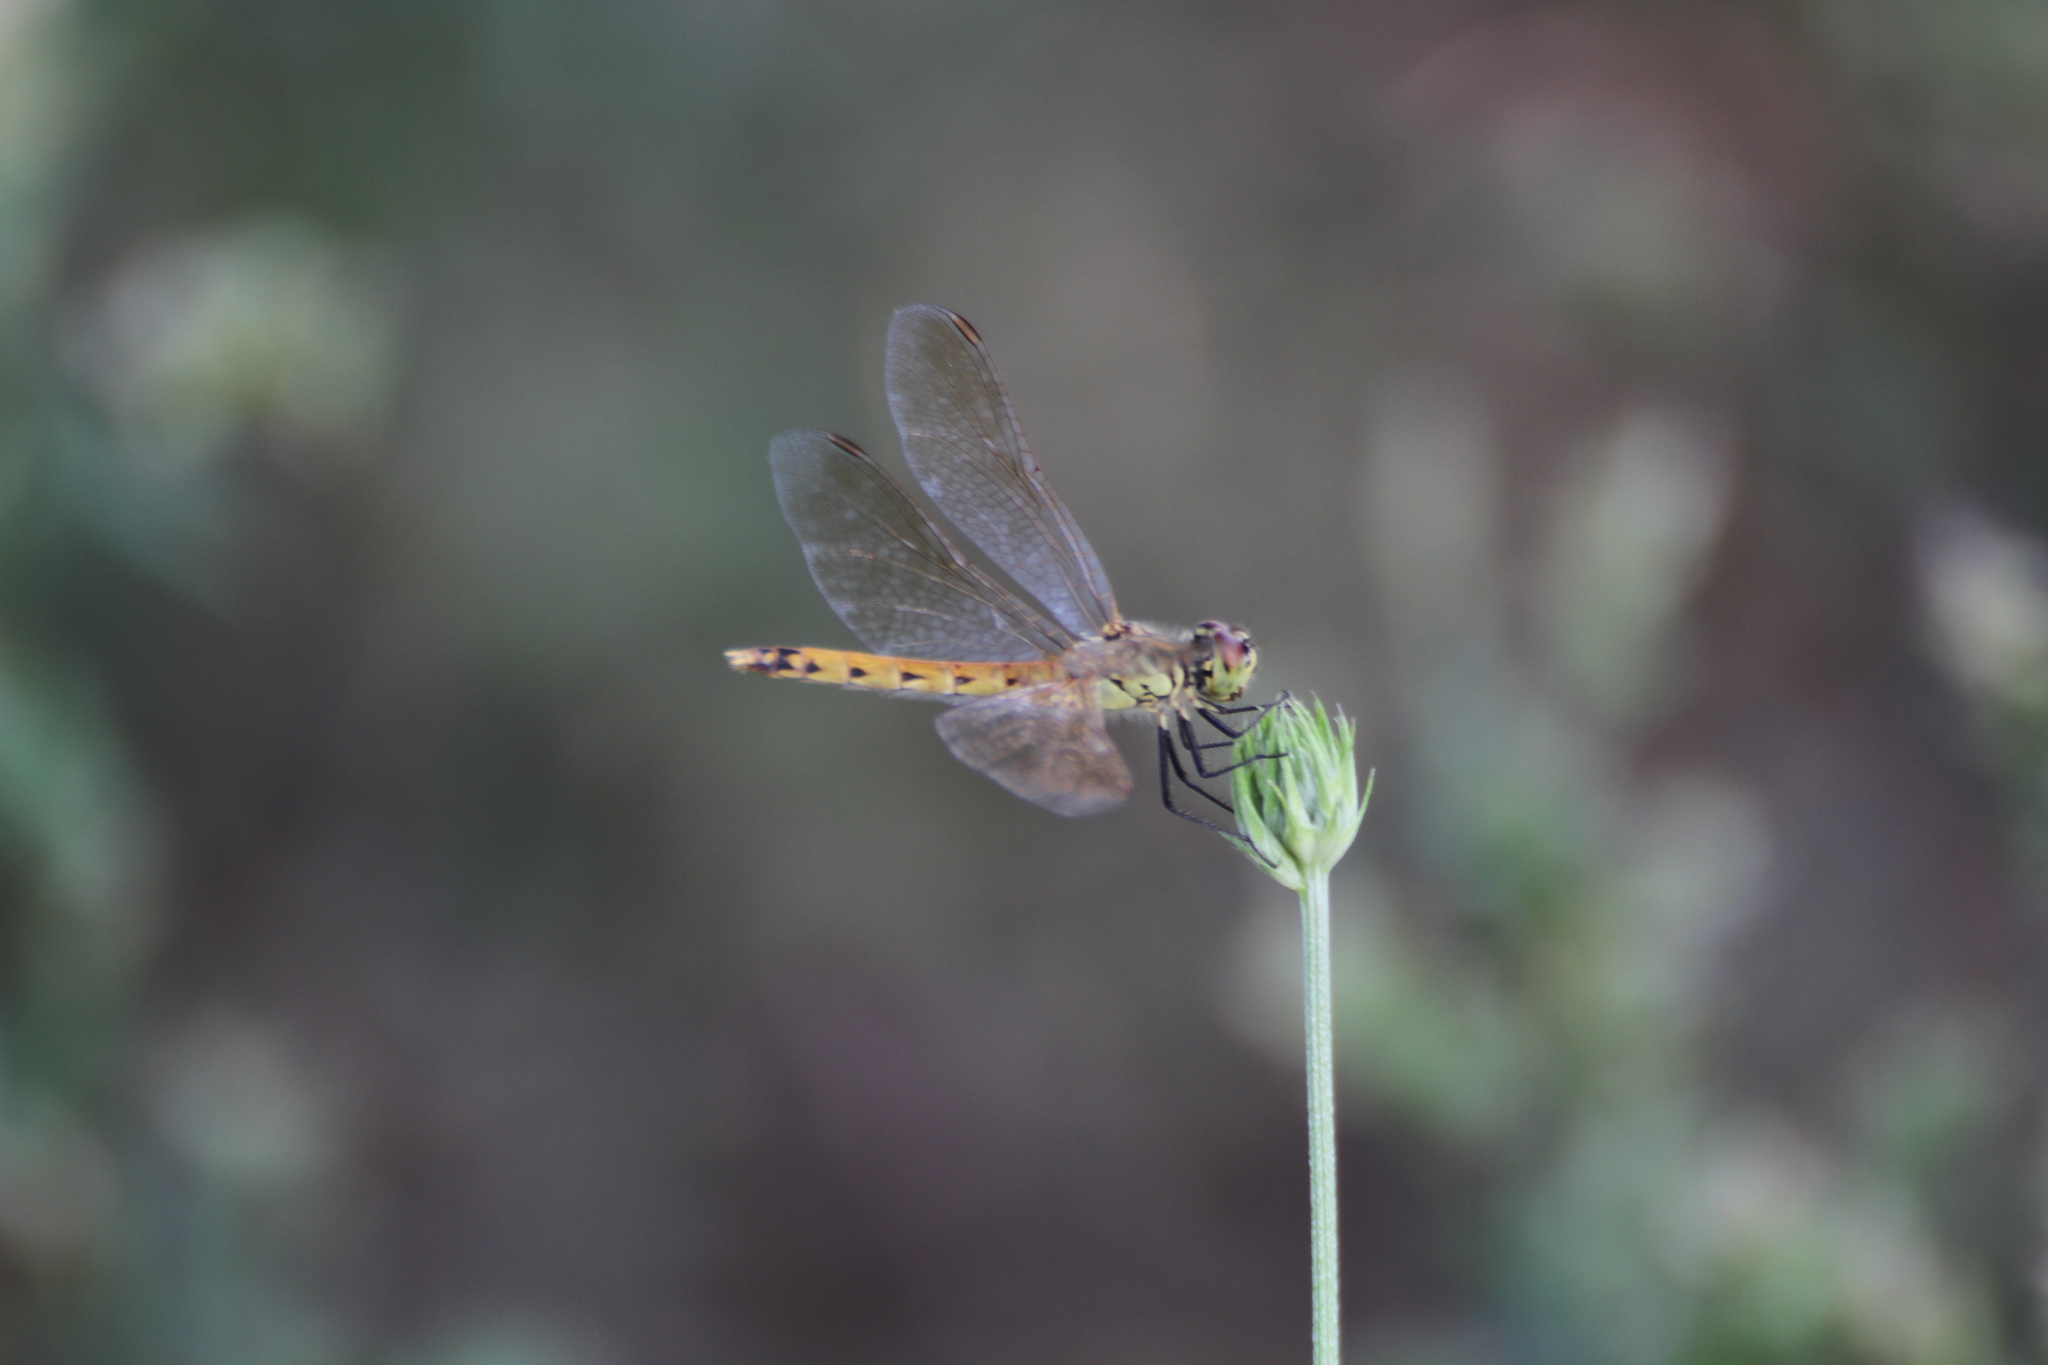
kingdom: Animalia
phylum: Arthropoda
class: Insecta
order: Odonata
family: Libellulidae
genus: Sympetrum
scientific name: Sympetrum depressiusculum
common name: Spotted darter
